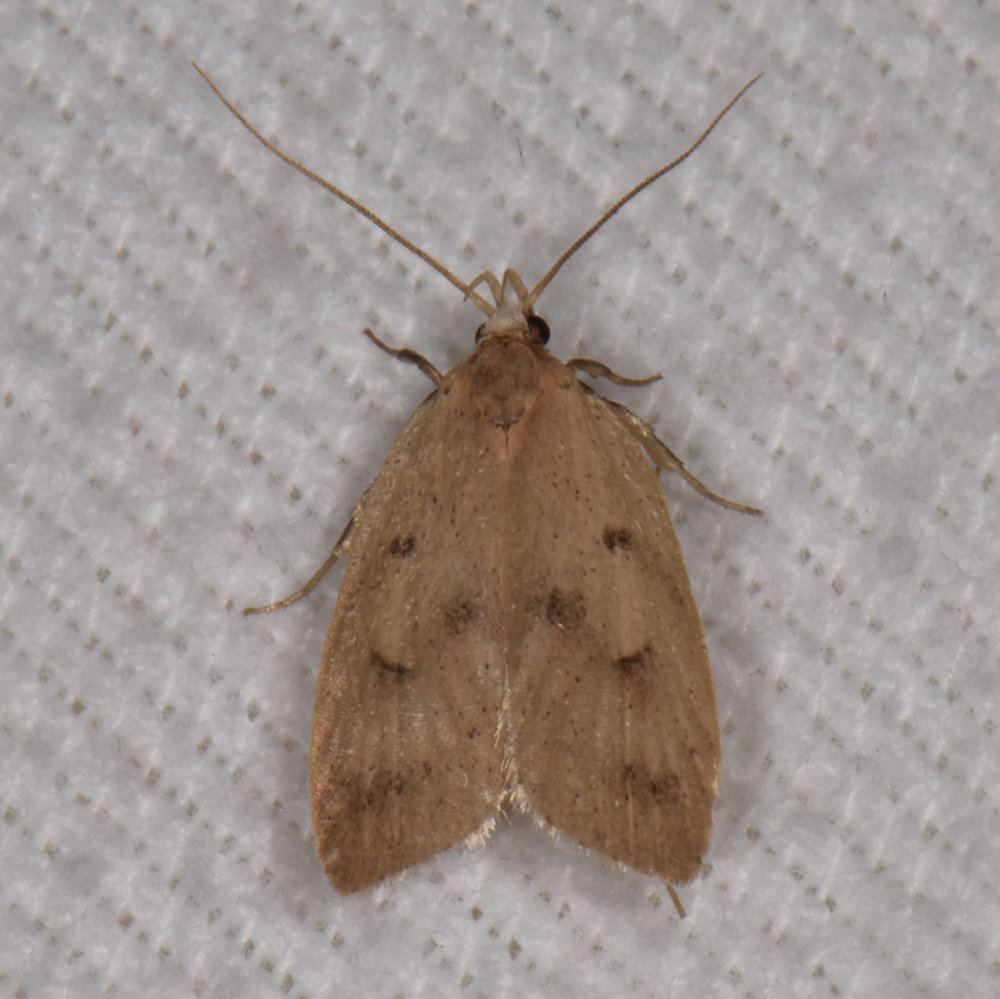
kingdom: Animalia
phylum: Arthropoda
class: Insecta
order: Lepidoptera
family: Peleopodidae
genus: Machimia
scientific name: Machimia tentoriferella
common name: Gold-striped leaftier moth
